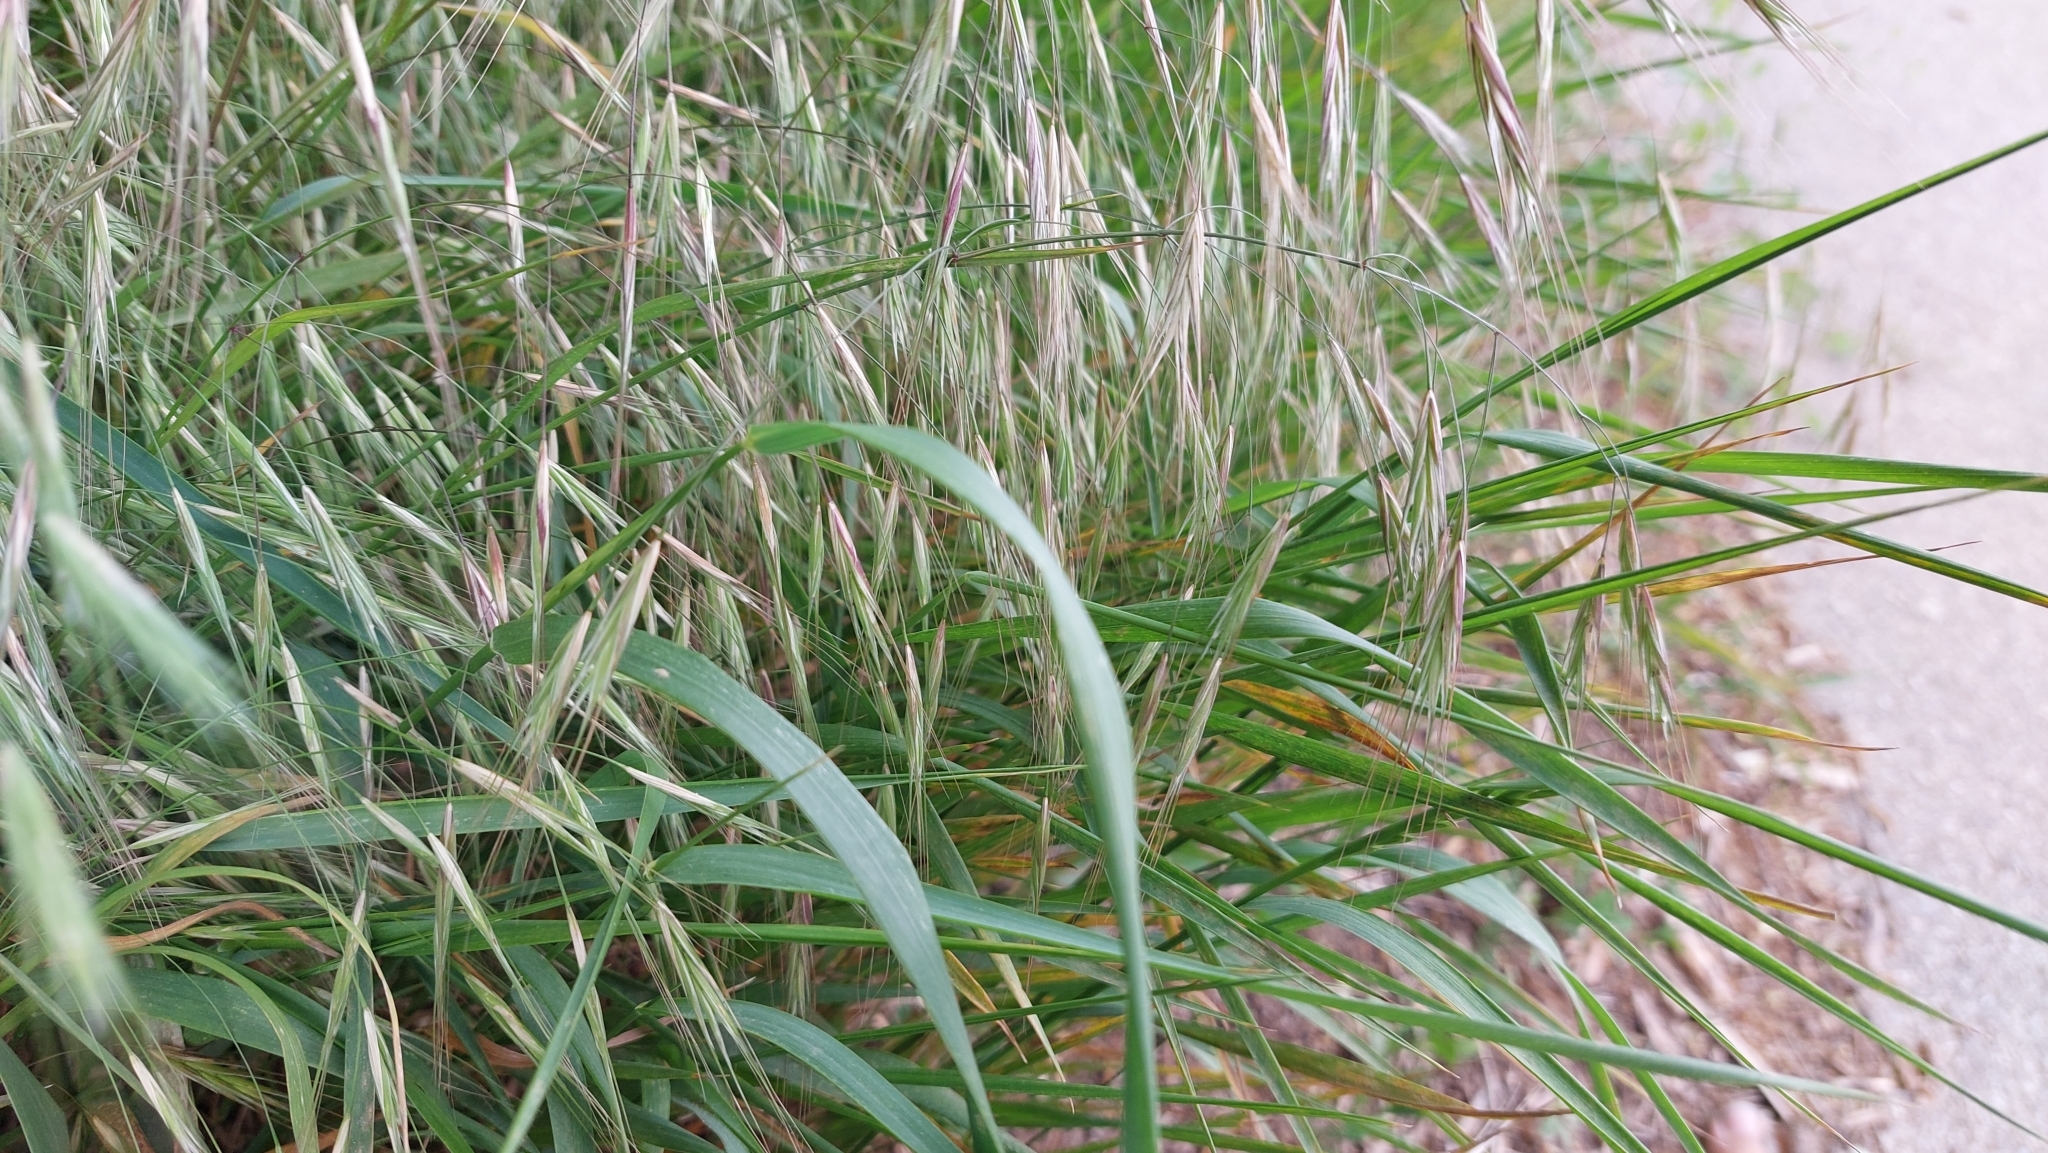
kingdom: Plantae
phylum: Tracheophyta
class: Liliopsida
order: Poales
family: Poaceae
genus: Bromus
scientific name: Bromus sterilis
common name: Poverty brome
